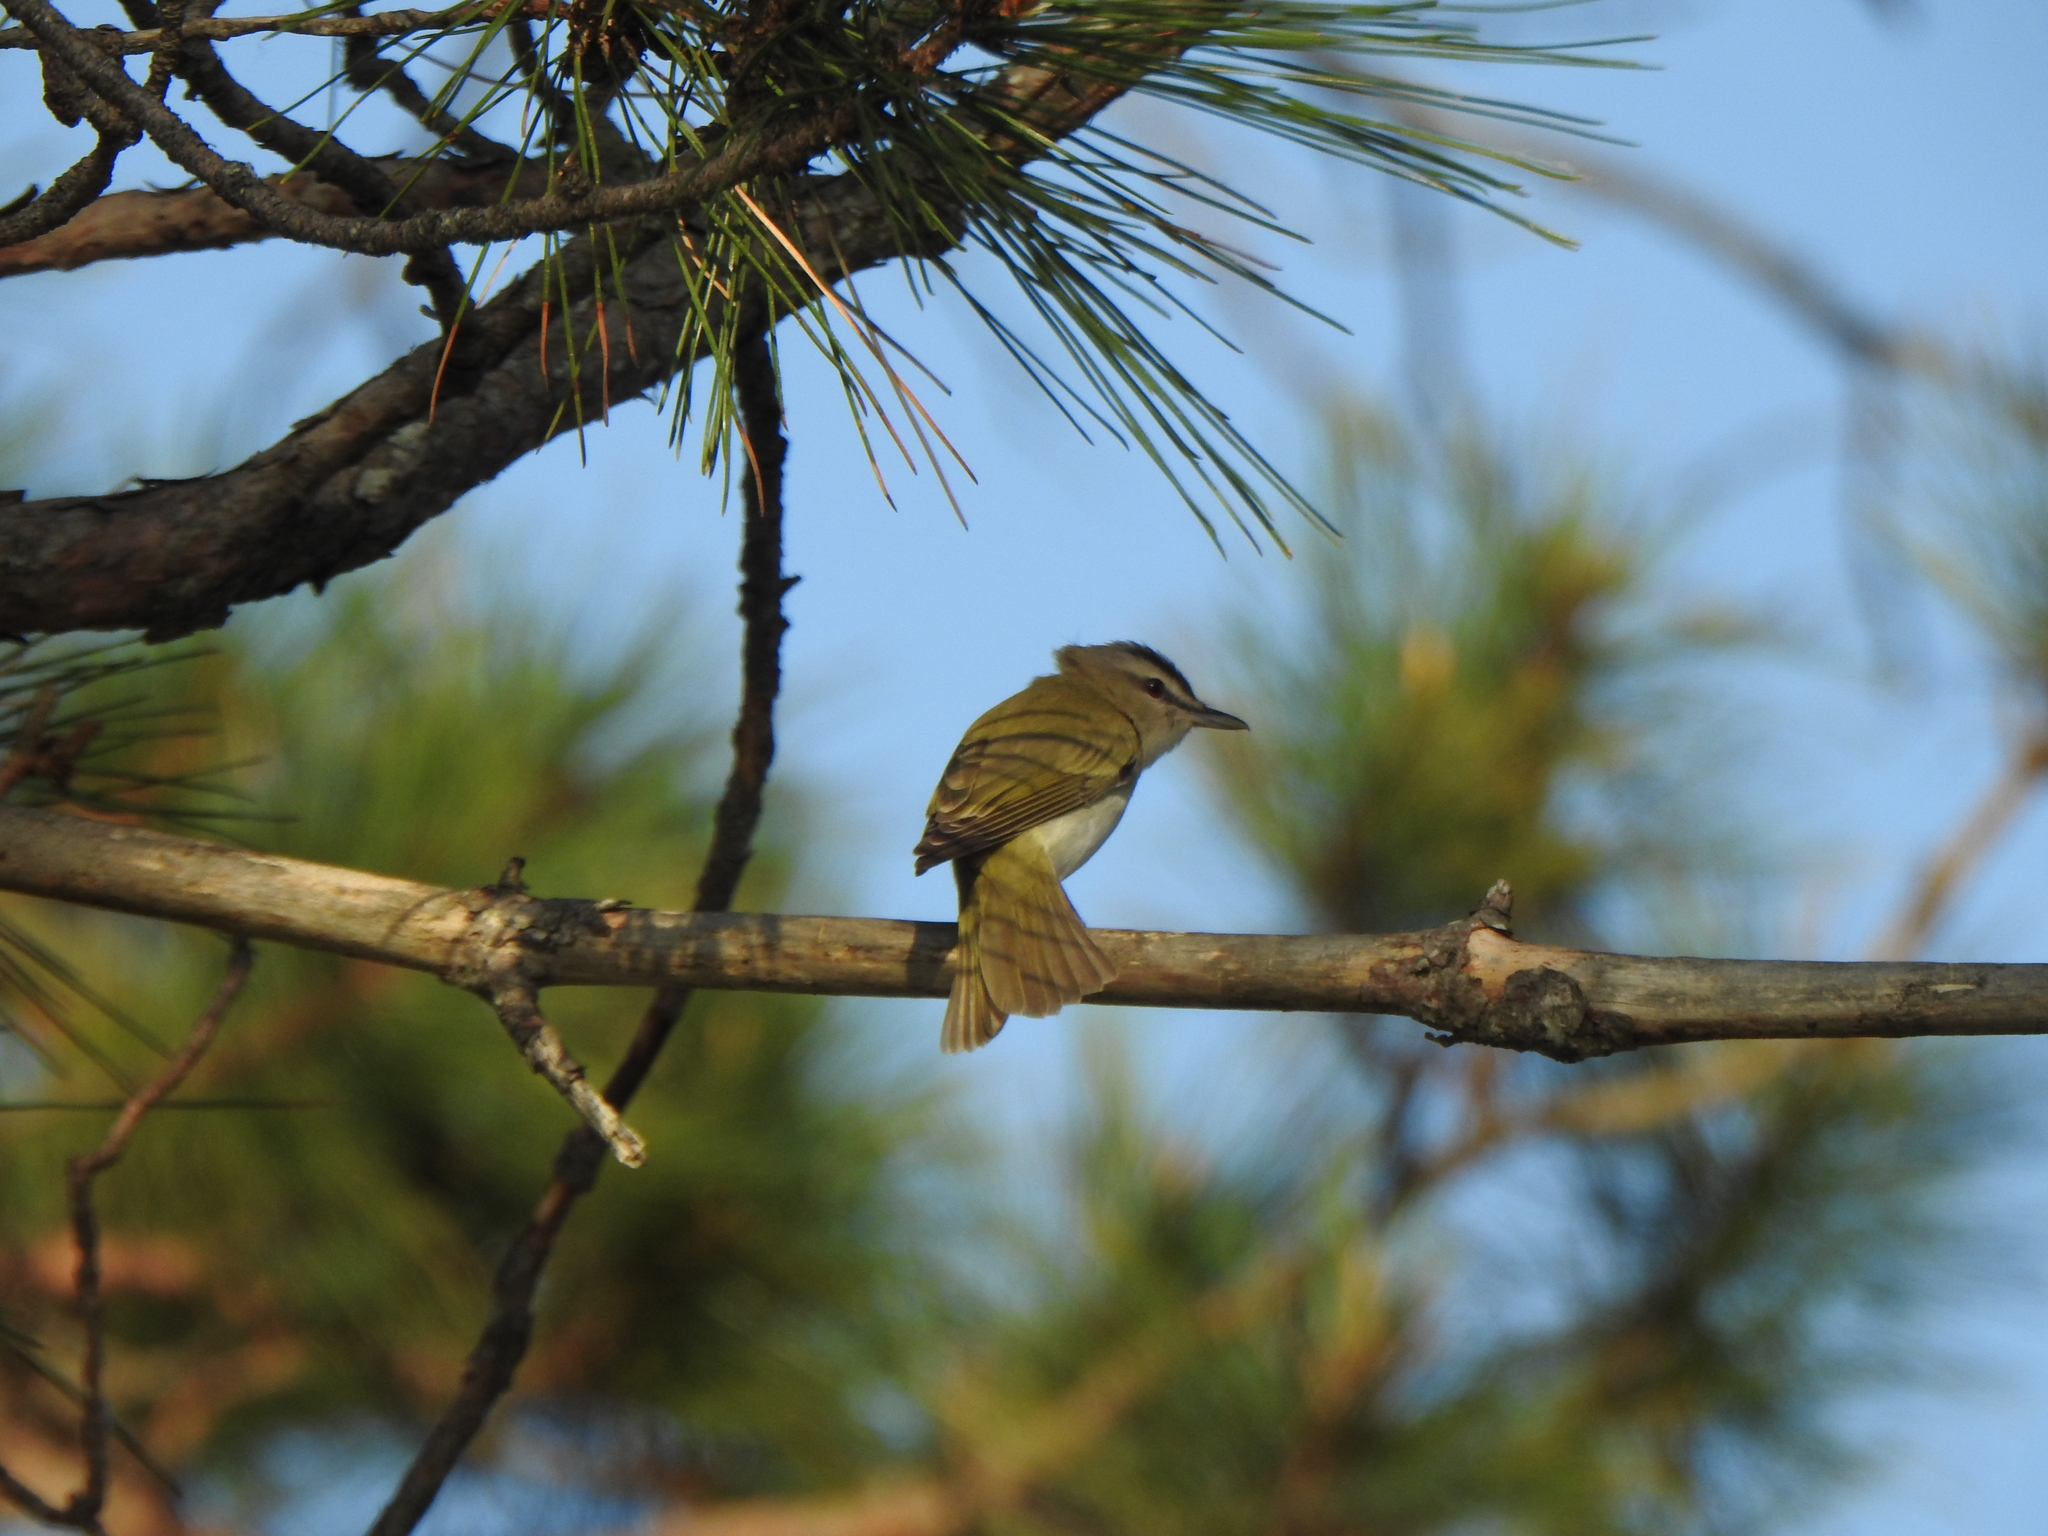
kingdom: Animalia
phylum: Chordata
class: Aves
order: Passeriformes
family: Vireonidae
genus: Vireo
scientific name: Vireo olivaceus
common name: Red-eyed vireo
